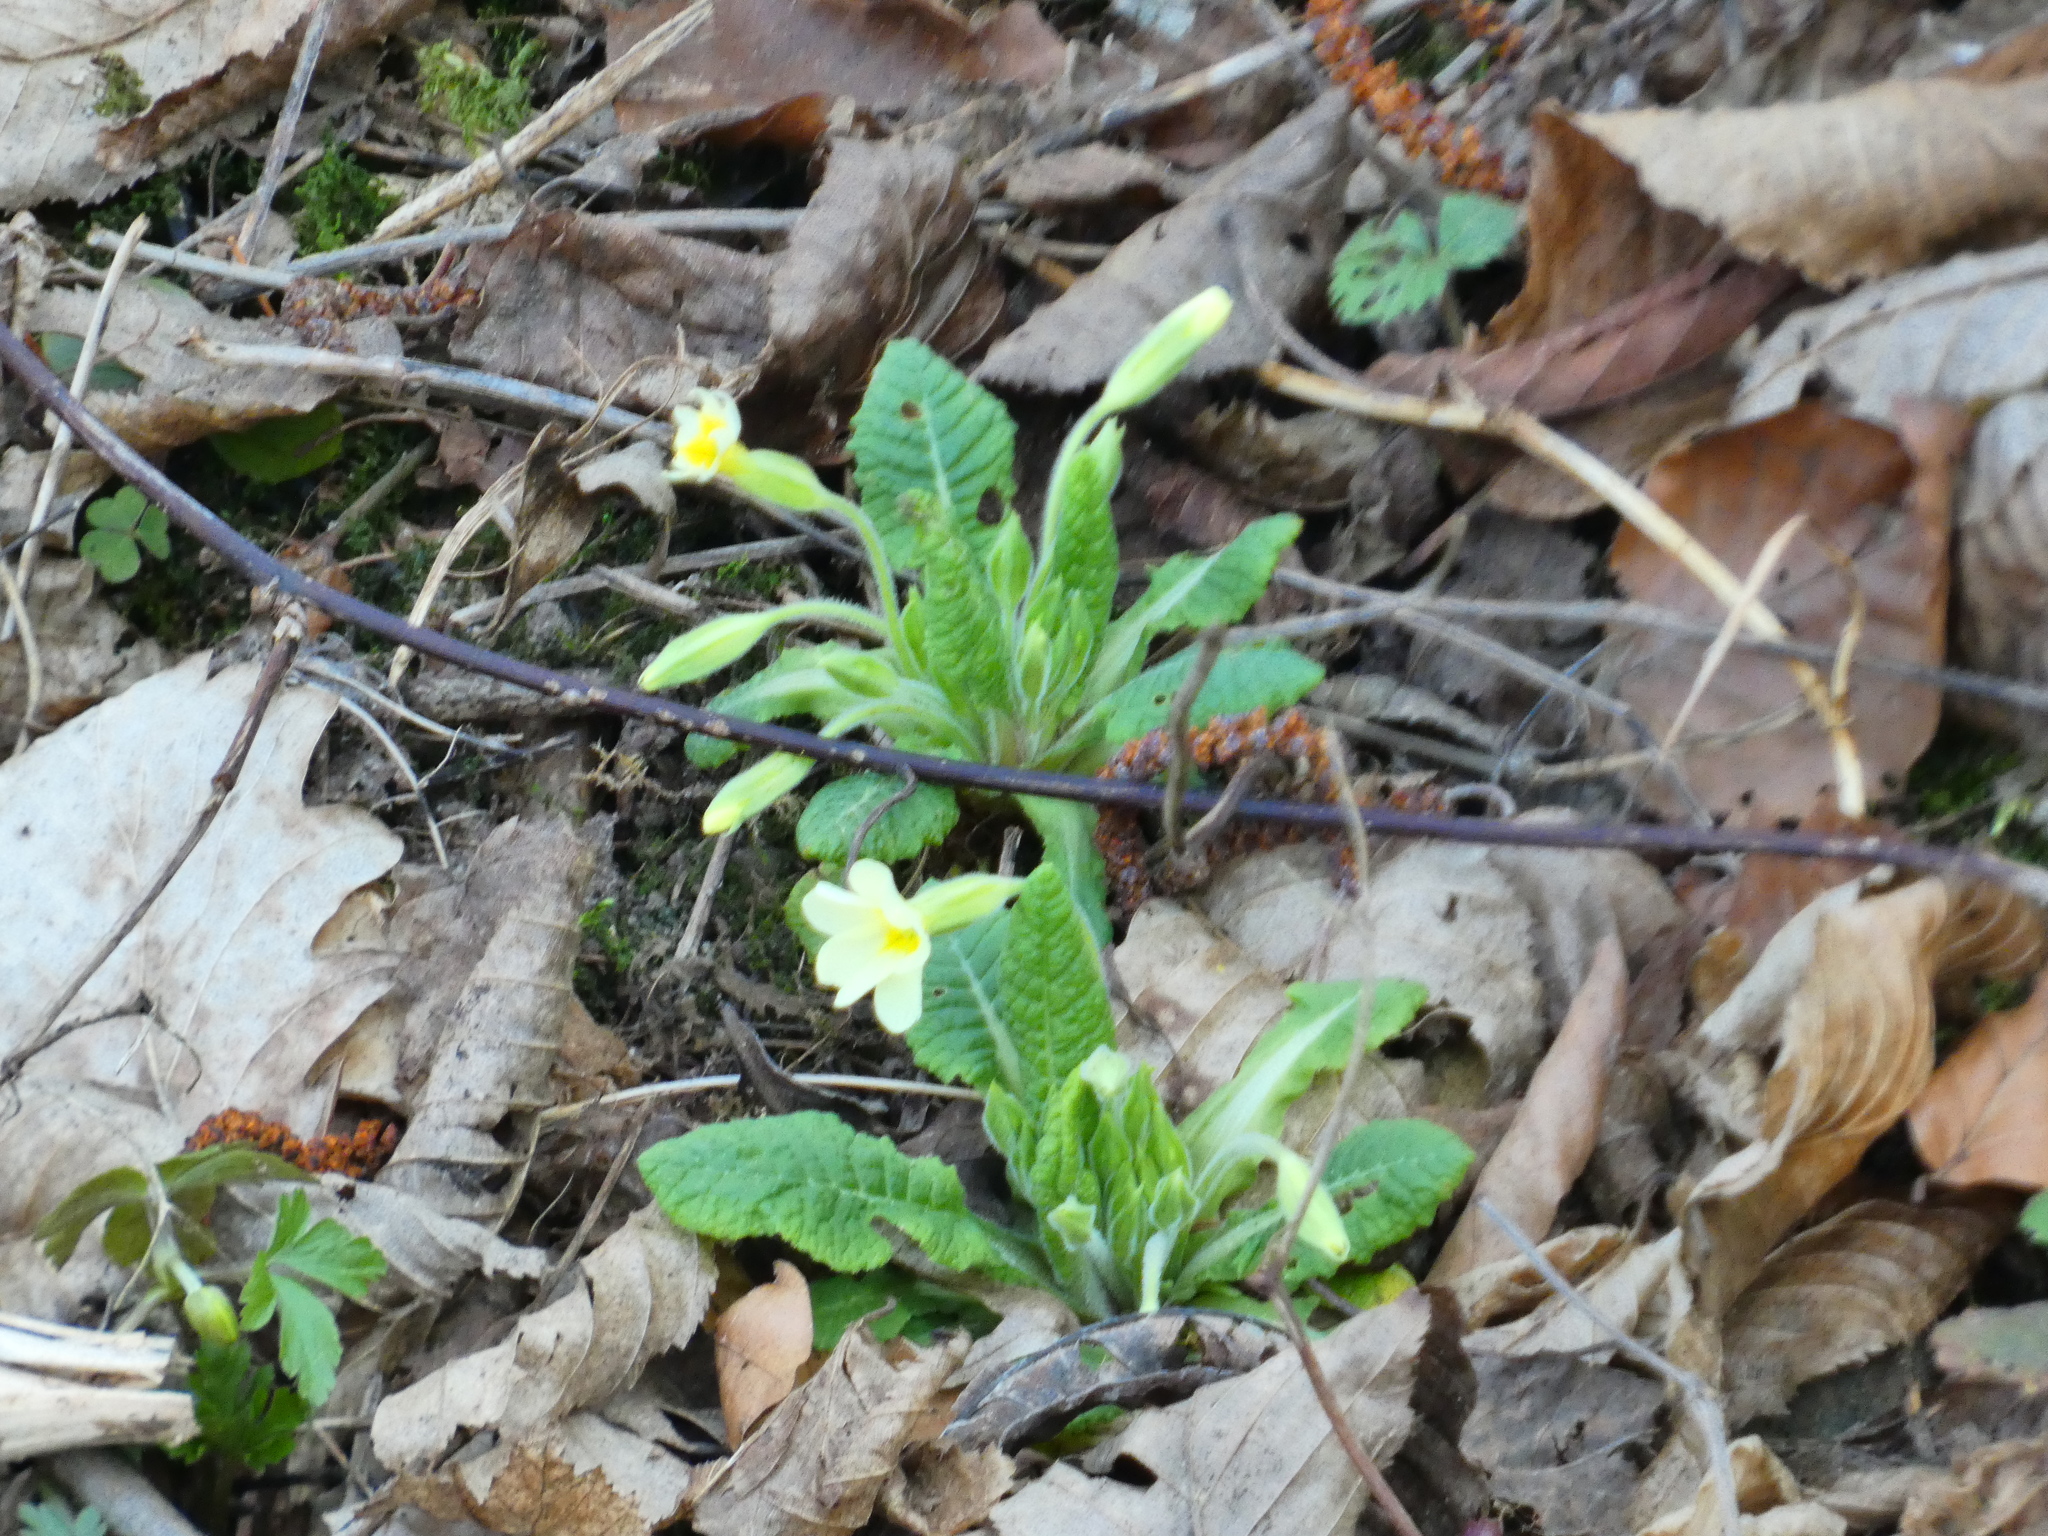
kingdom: Plantae
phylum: Tracheophyta
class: Magnoliopsida
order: Ericales
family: Primulaceae
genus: Primula
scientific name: Primula vulgaris
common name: Primrose
